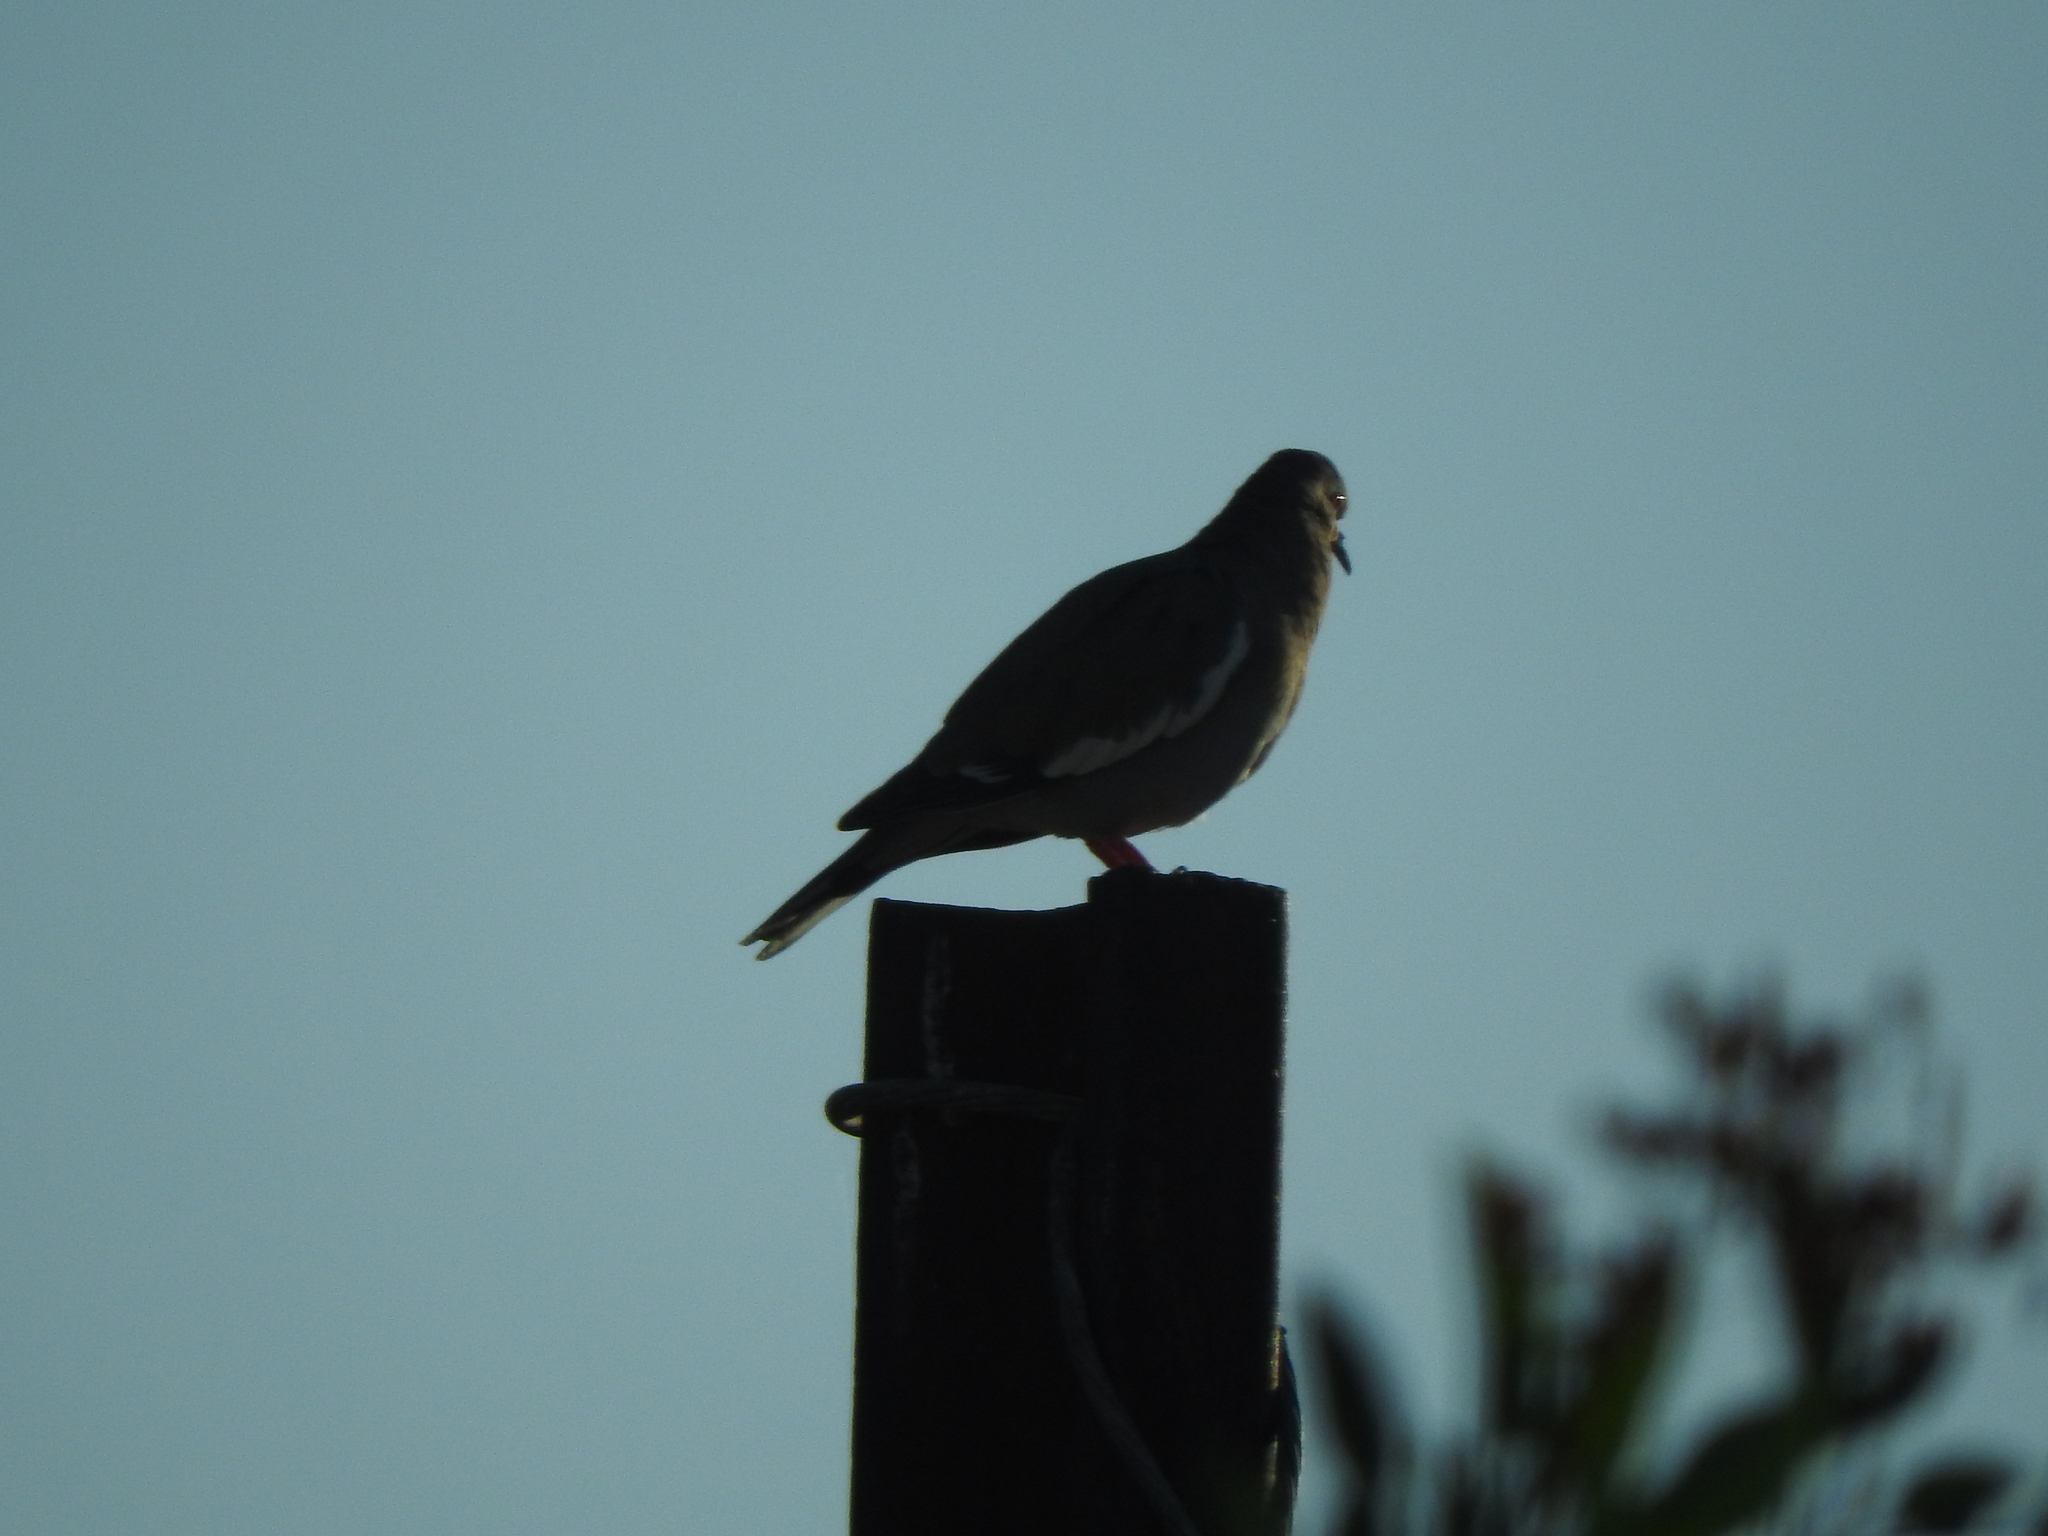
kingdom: Animalia
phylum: Chordata
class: Aves
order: Columbiformes
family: Columbidae
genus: Zenaida
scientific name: Zenaida asiatica
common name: White-winged dove
